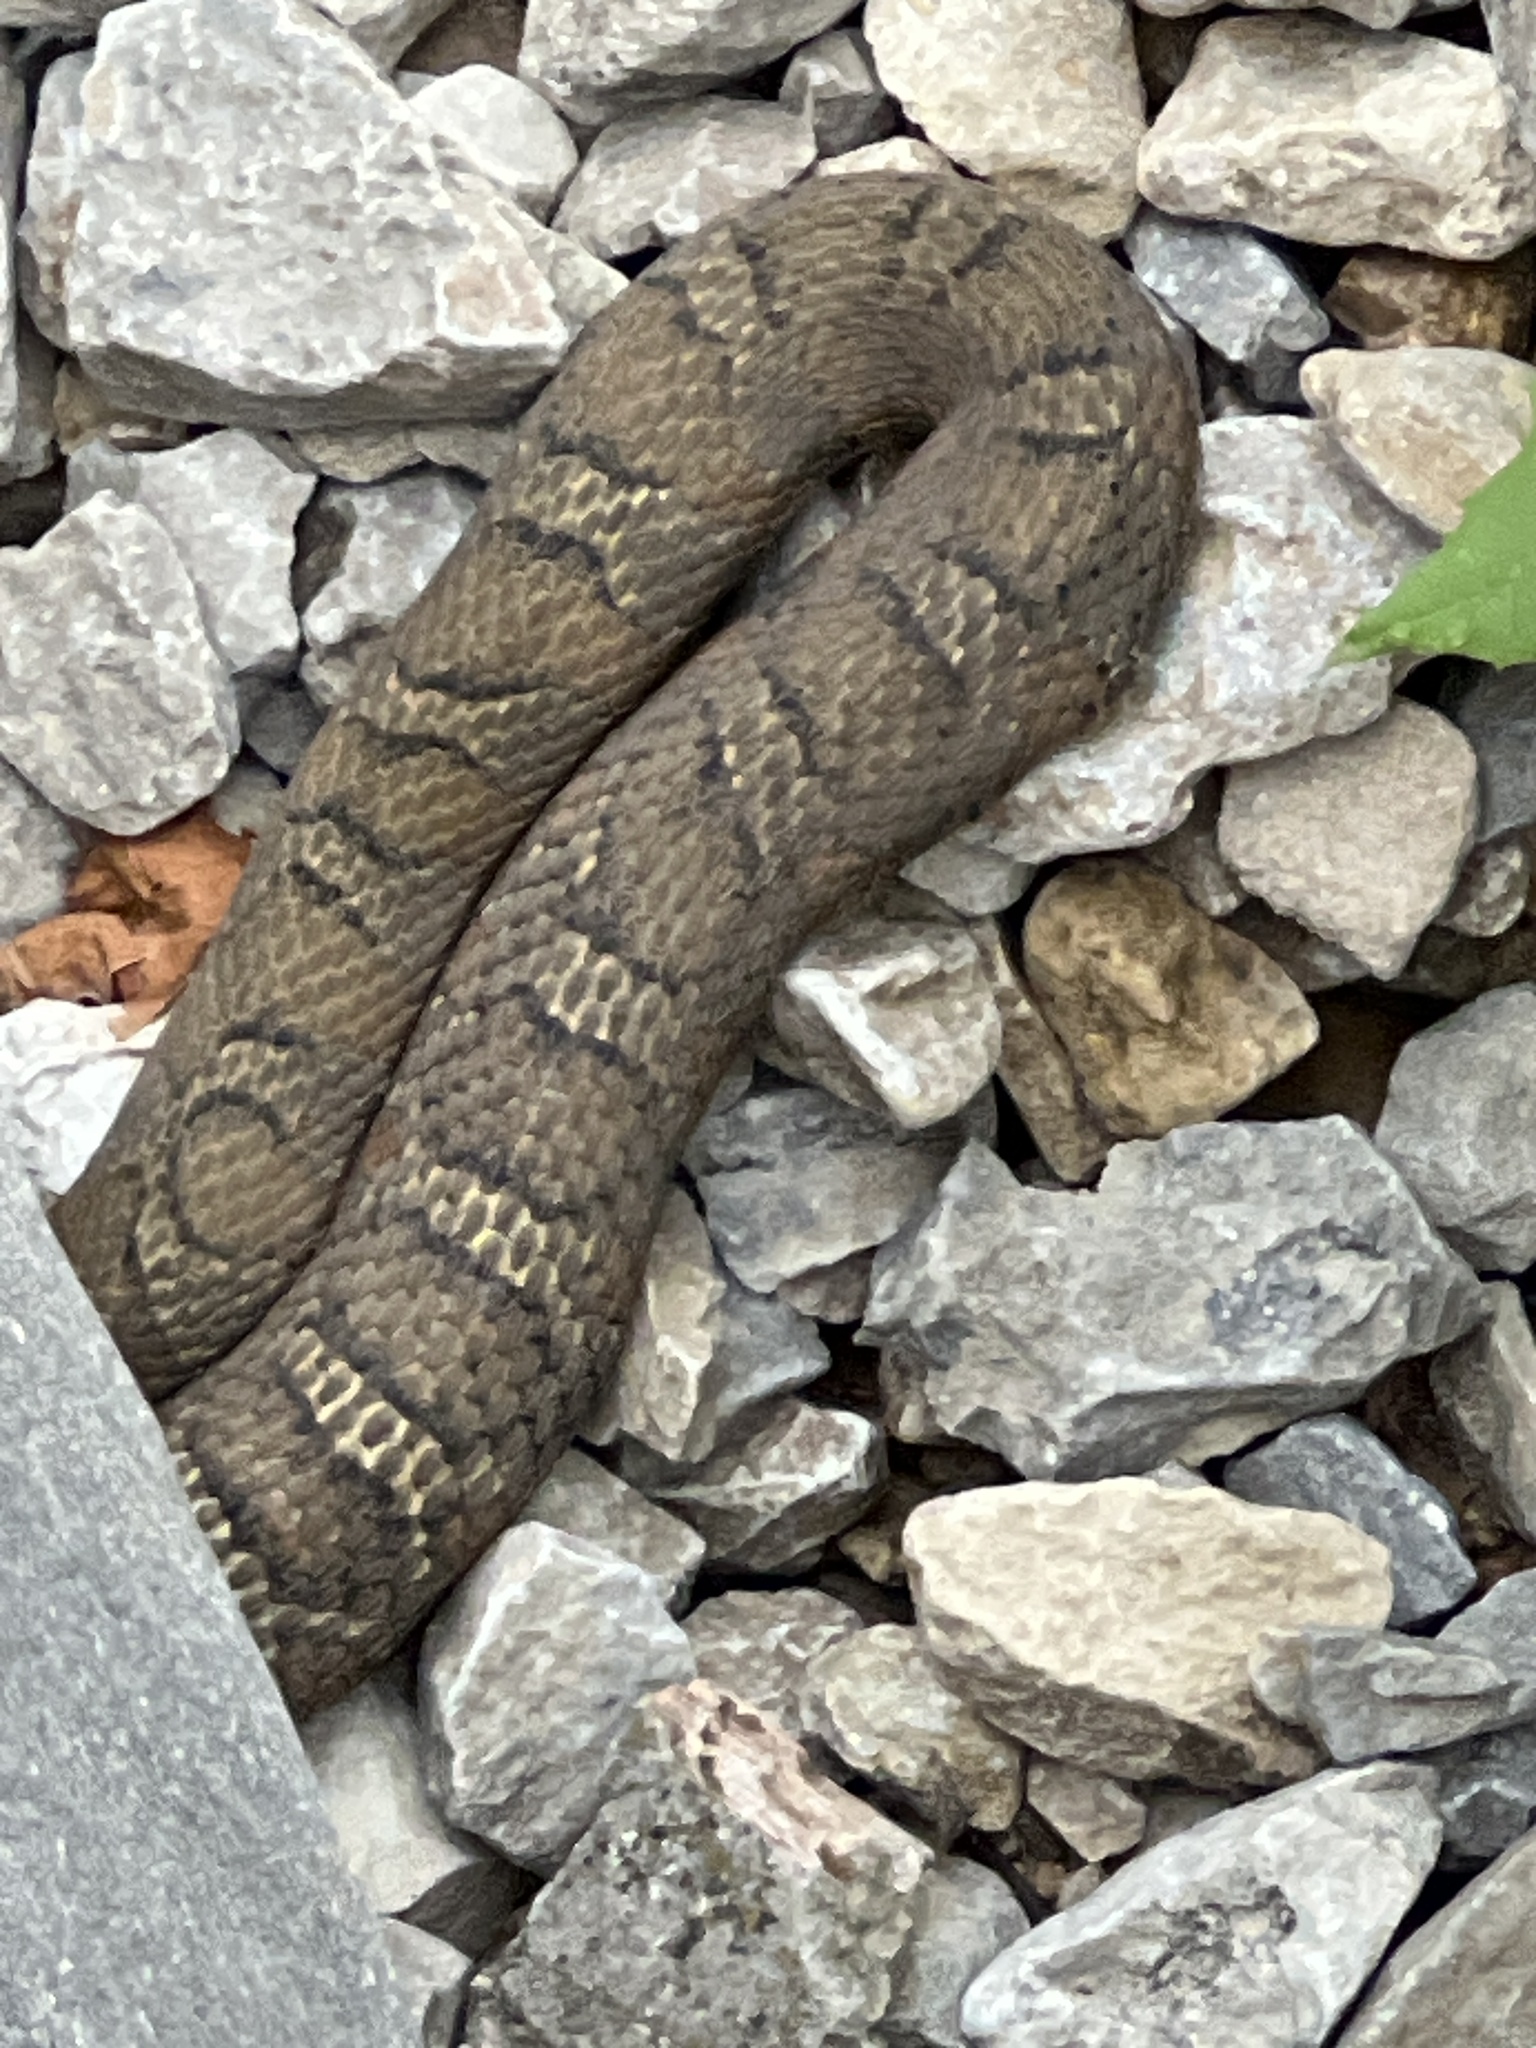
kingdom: Animalia
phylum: Chordata
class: Squamata
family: Colubridae
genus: Nerodia
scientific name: Nerodia sipedon
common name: Northern water snake
